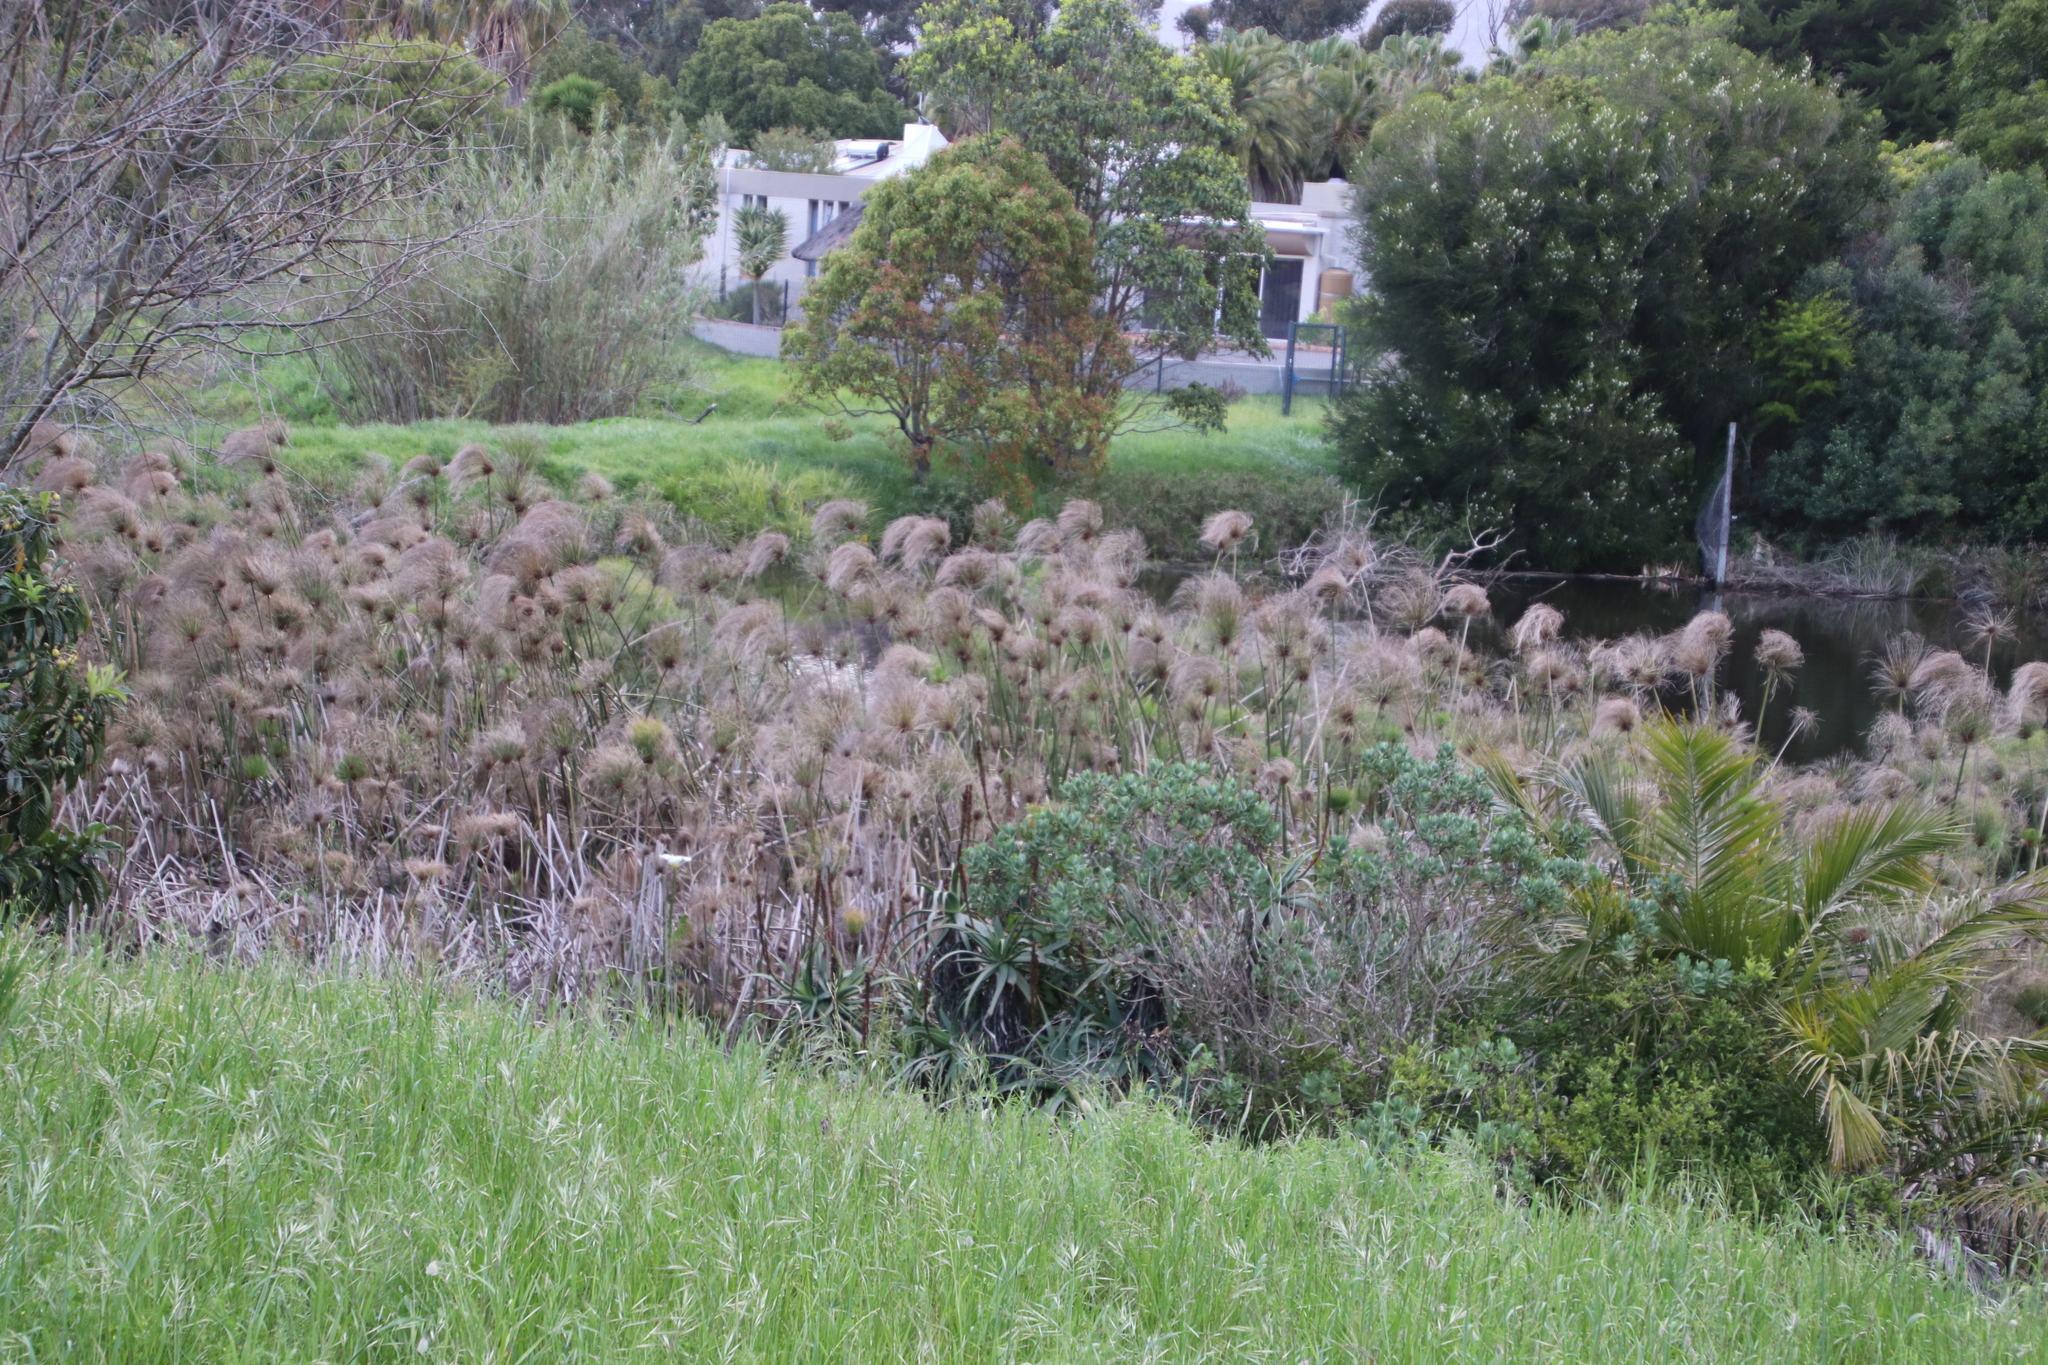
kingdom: Plantae
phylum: Tracheophyta
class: Liliopsida
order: Poales
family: Cyperaceae
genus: Cyperus
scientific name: Cyperus papyrus
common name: Papyrus
